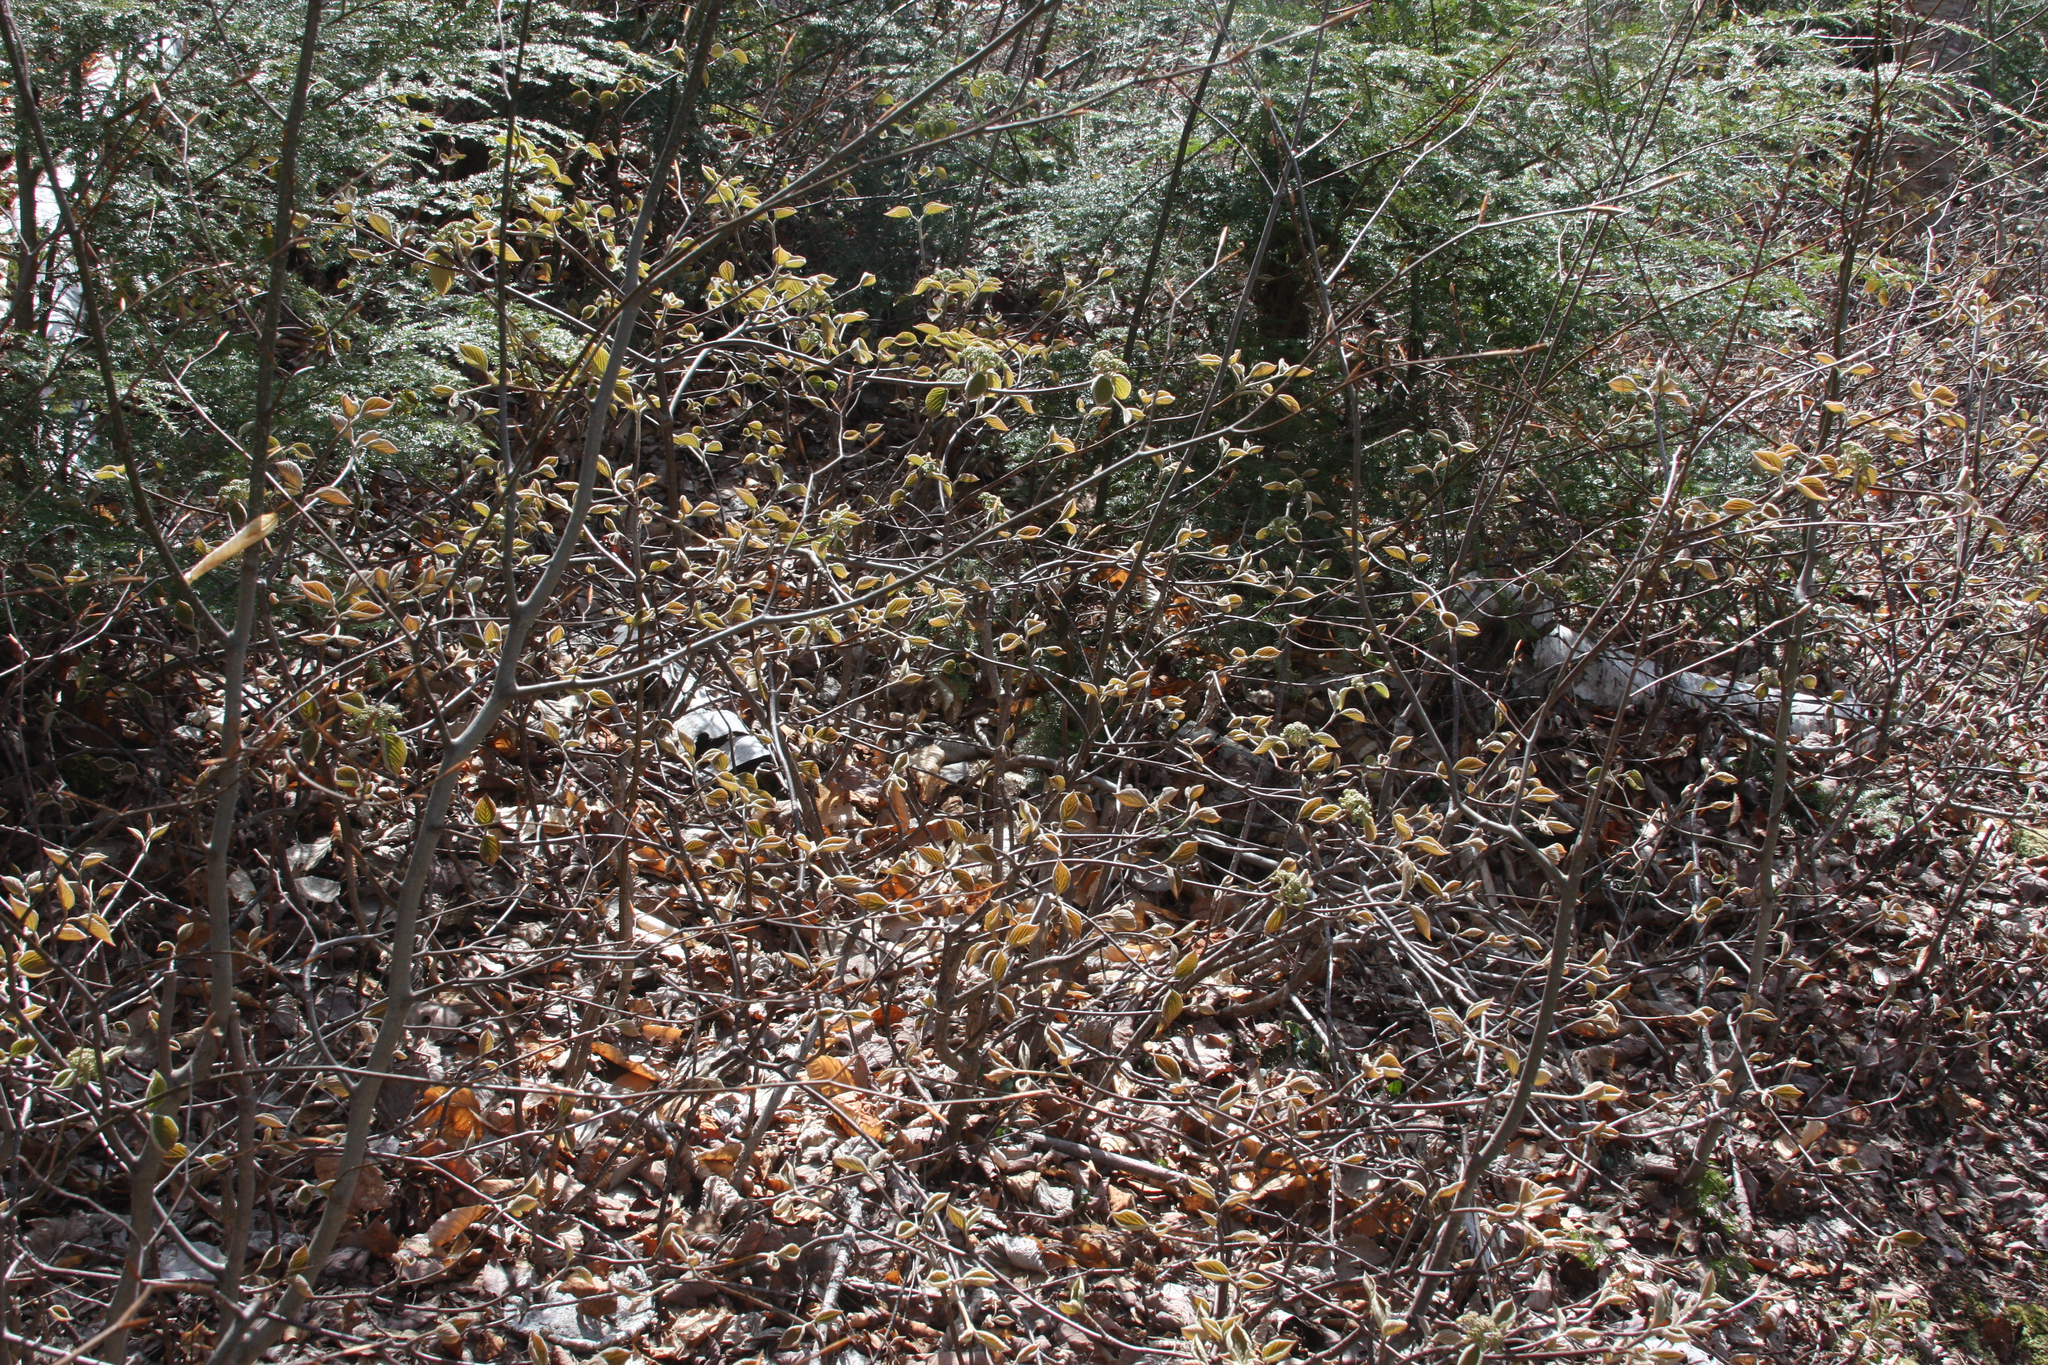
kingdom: Plantae
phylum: Tracheophyta
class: Magnoliopsida
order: Dipsacales
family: Viburnaceae
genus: Viburnum
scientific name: Viburnum lantanoides
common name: Hobblebush
